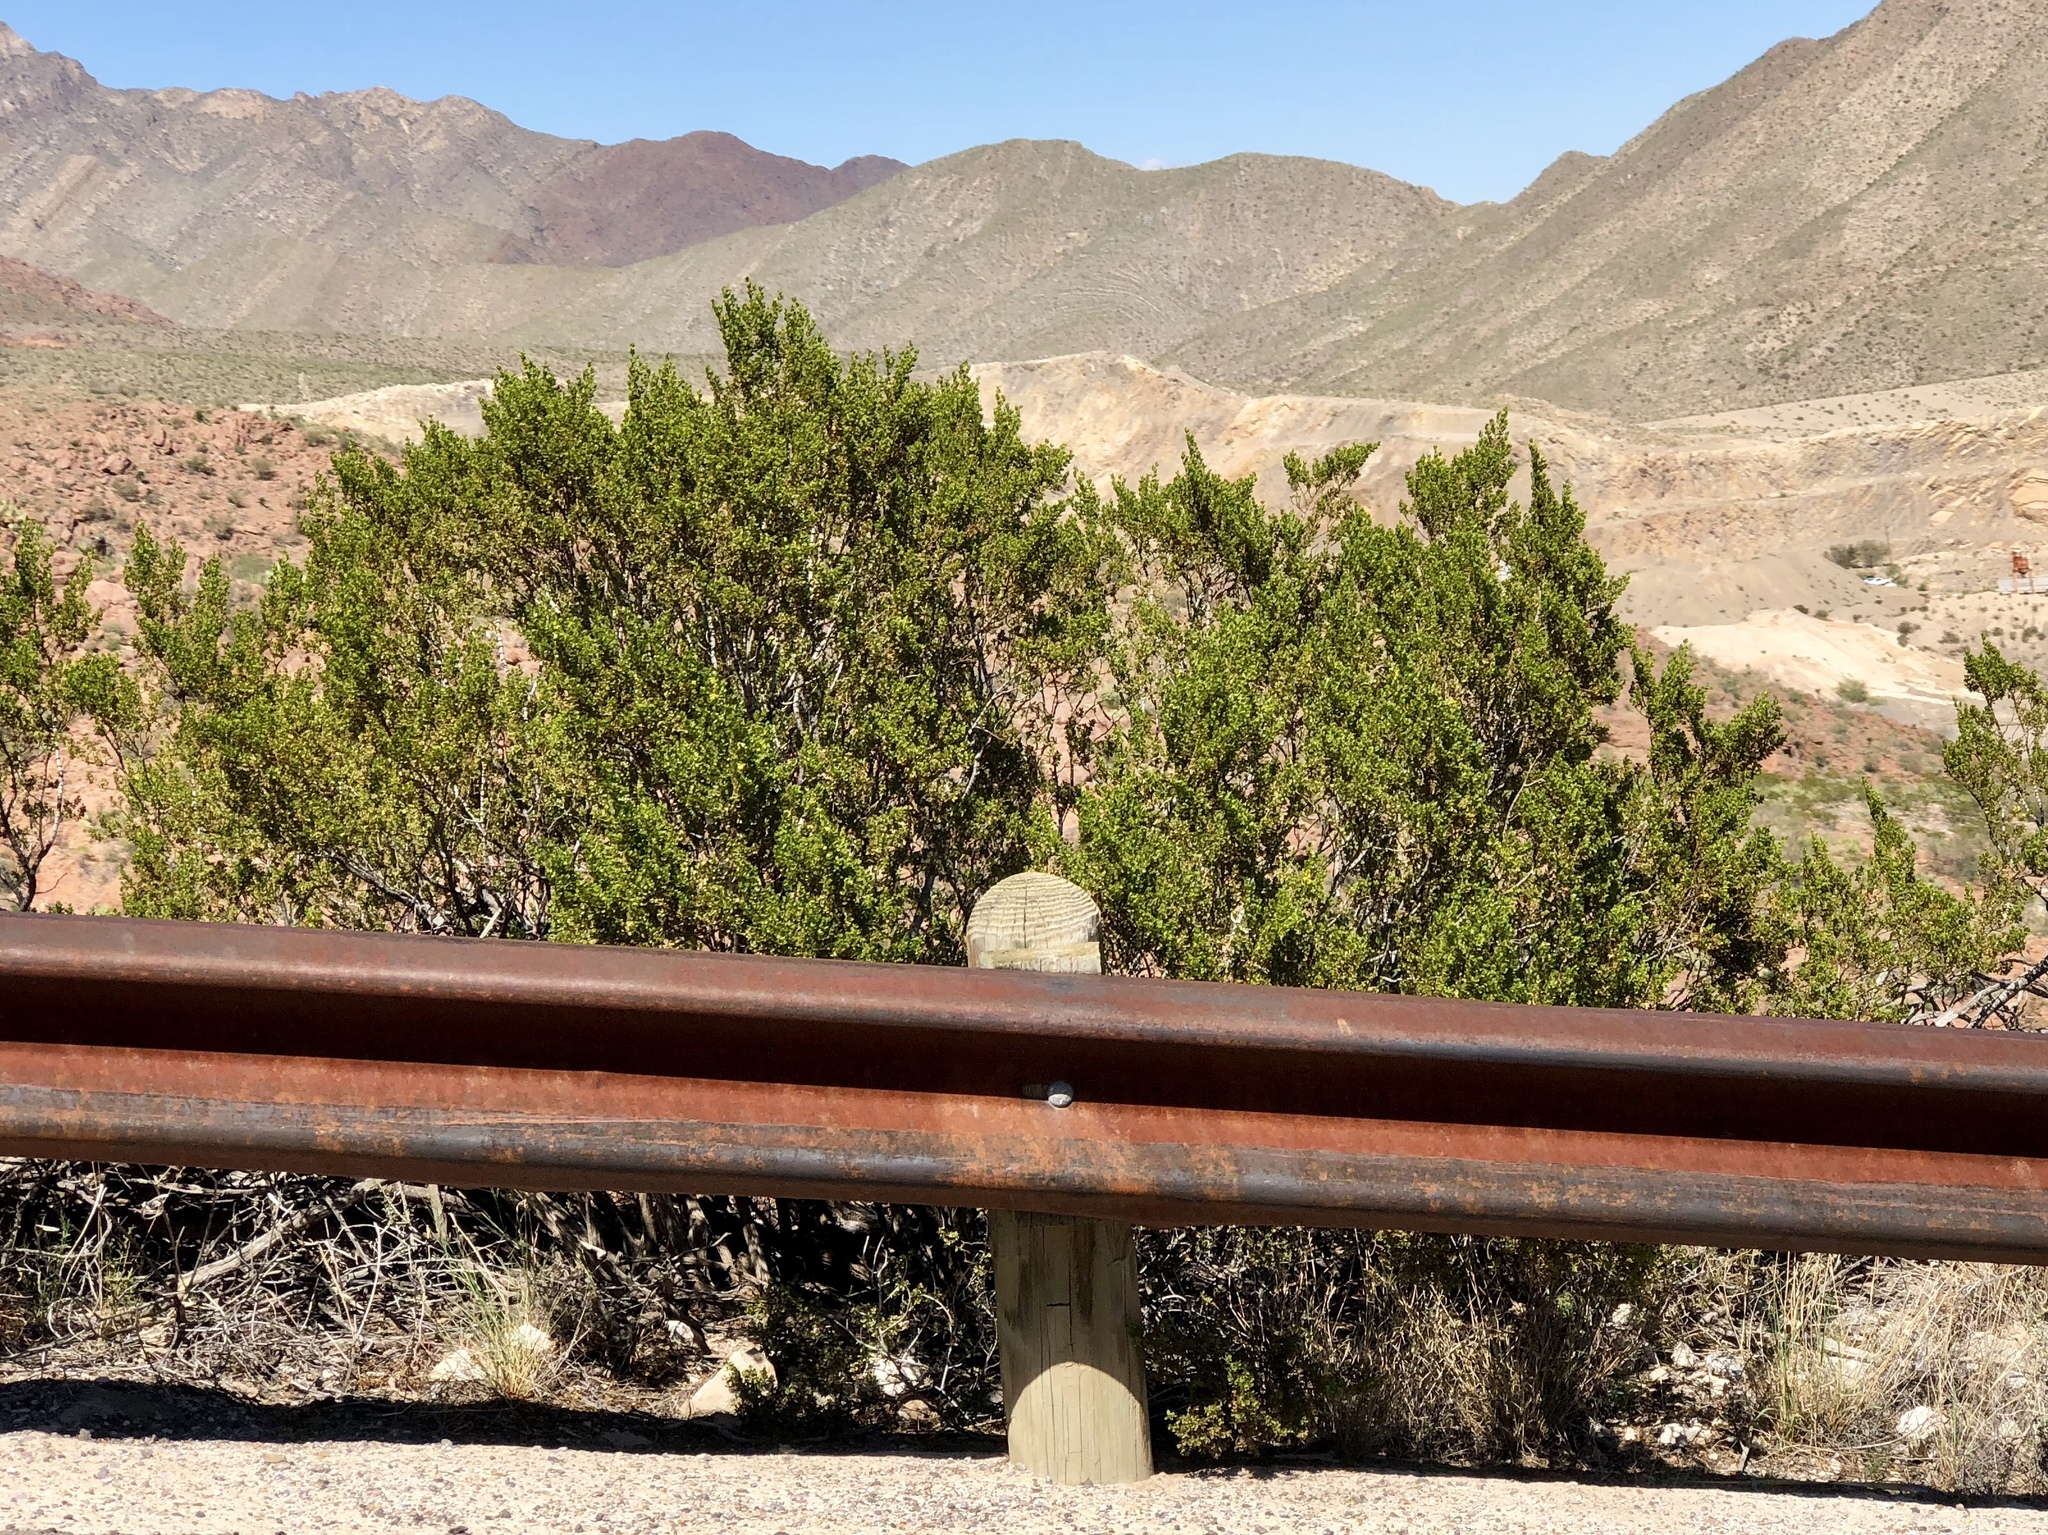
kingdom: Plantae
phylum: Tracheophyta
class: Magnoliopsida
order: Zygophyllales
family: Zygophyllaceae
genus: Larrea
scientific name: Larrea tridentata
